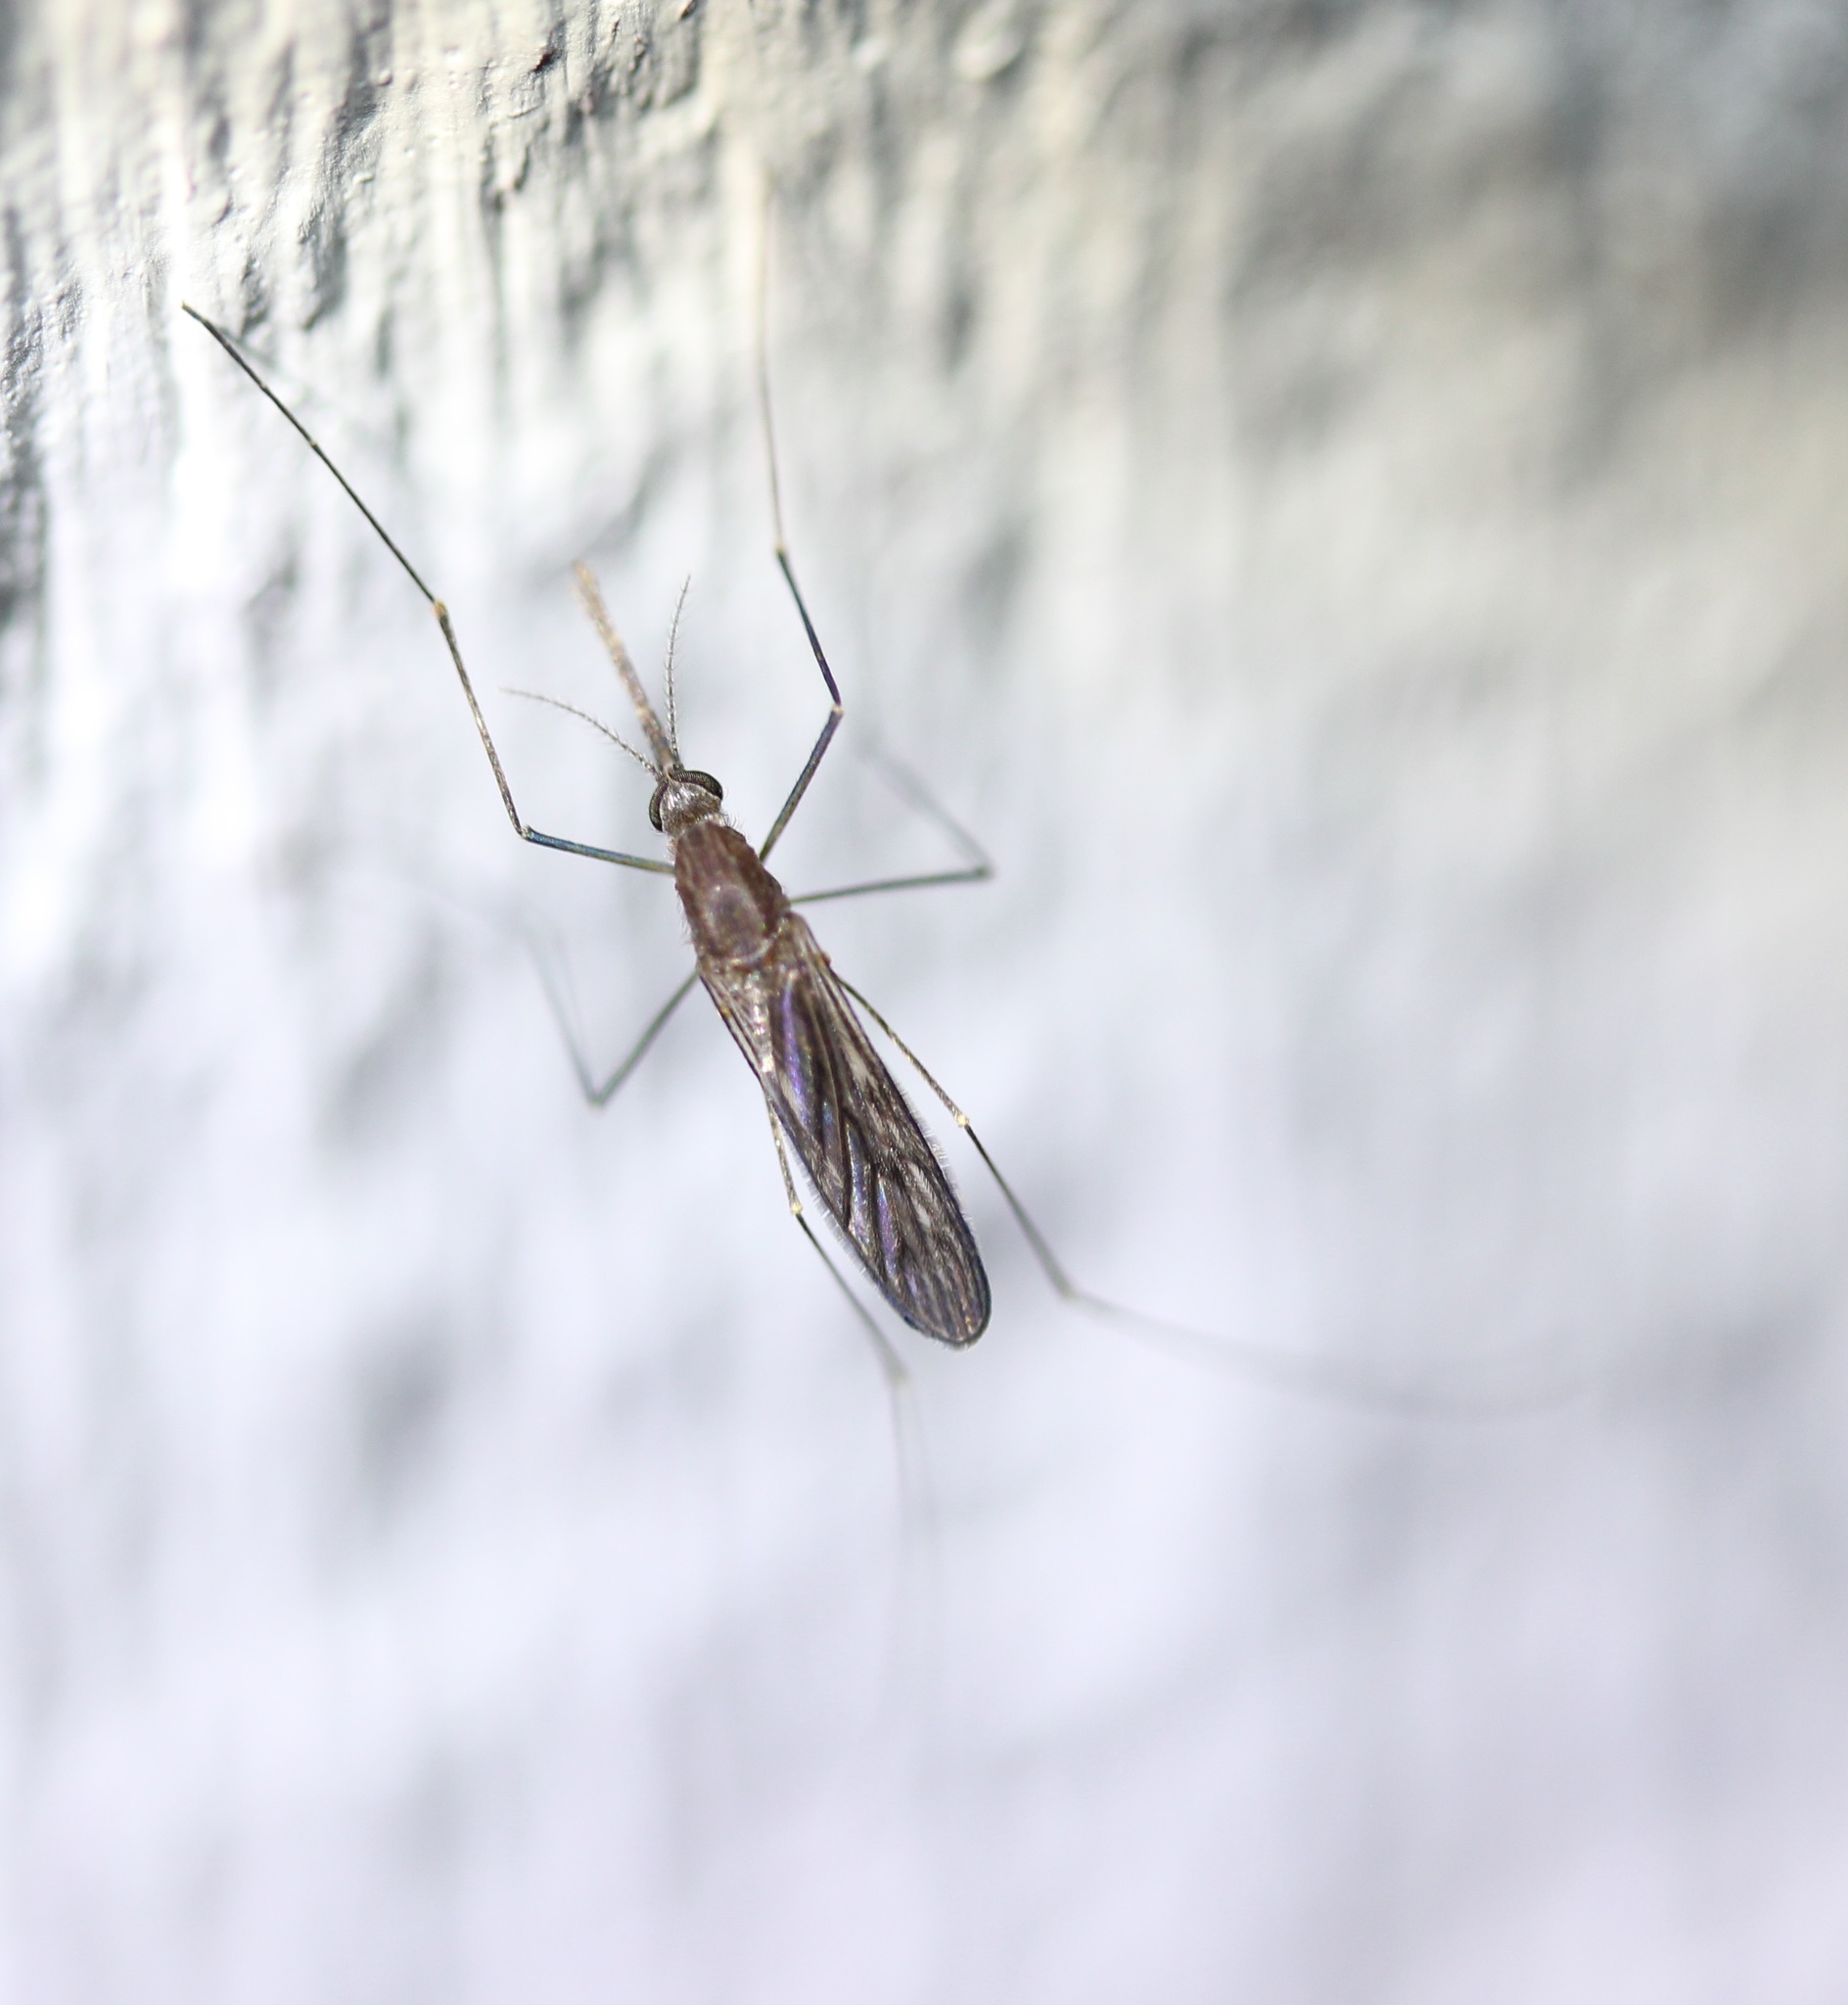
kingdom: Animalia
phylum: Arthropoda
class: Insecta
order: Diptera
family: Culicidae
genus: Anopheles
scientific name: Anopheles walkeri
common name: Walker's anopheles
